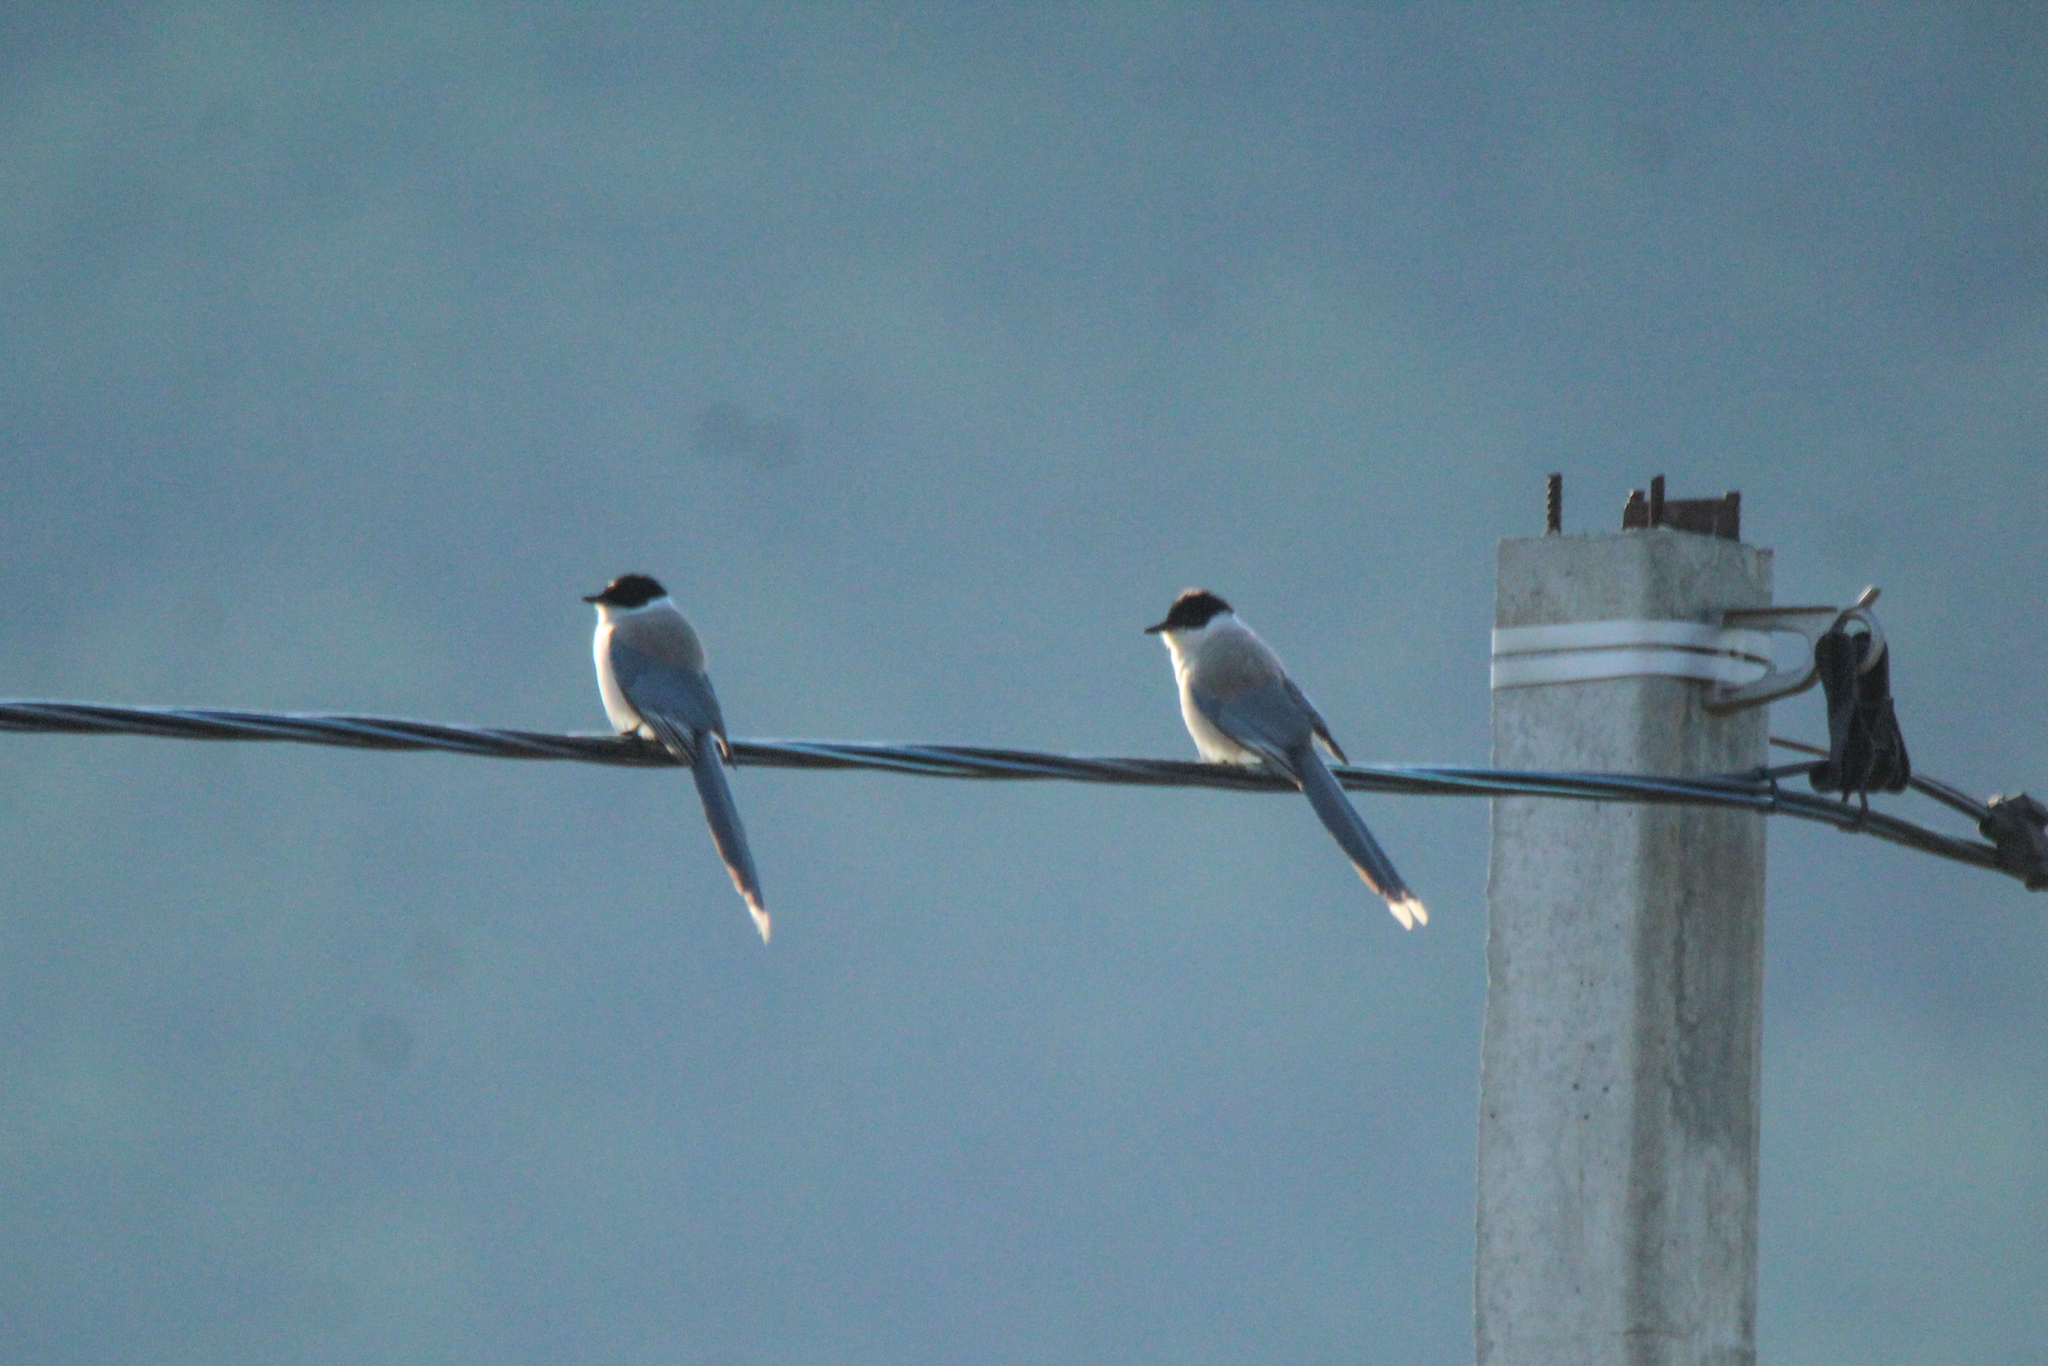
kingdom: Animalia
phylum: Chordata
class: Aves
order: Passeriformes
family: Corvidae
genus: Cyanopica
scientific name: Cyanopica cyanus
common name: Azure-winged magpie
